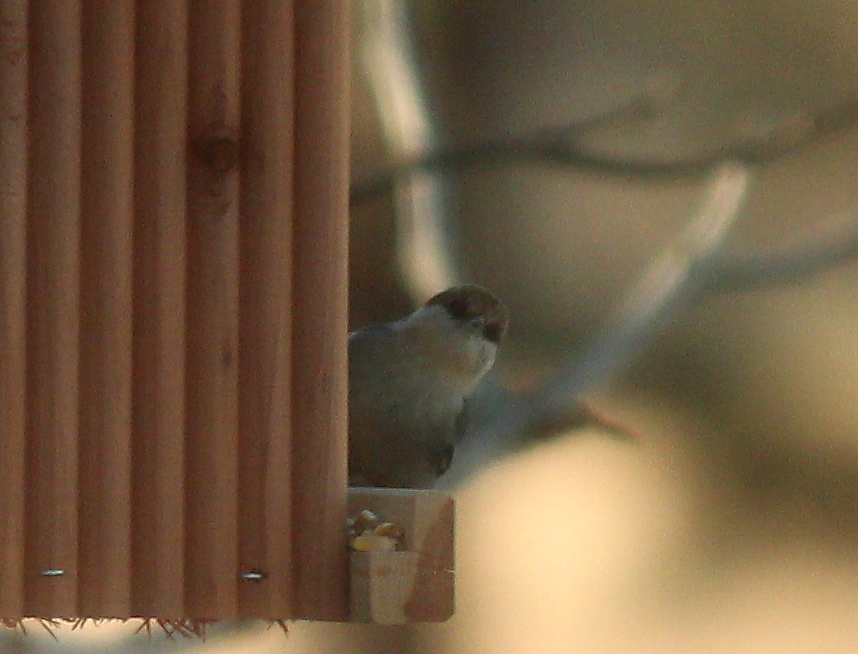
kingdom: Animalia
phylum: Chordata
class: Aves
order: Passeriformes
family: Sittidae
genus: Sitta
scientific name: Sitta pusilla
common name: Brown-headed nuthatch
